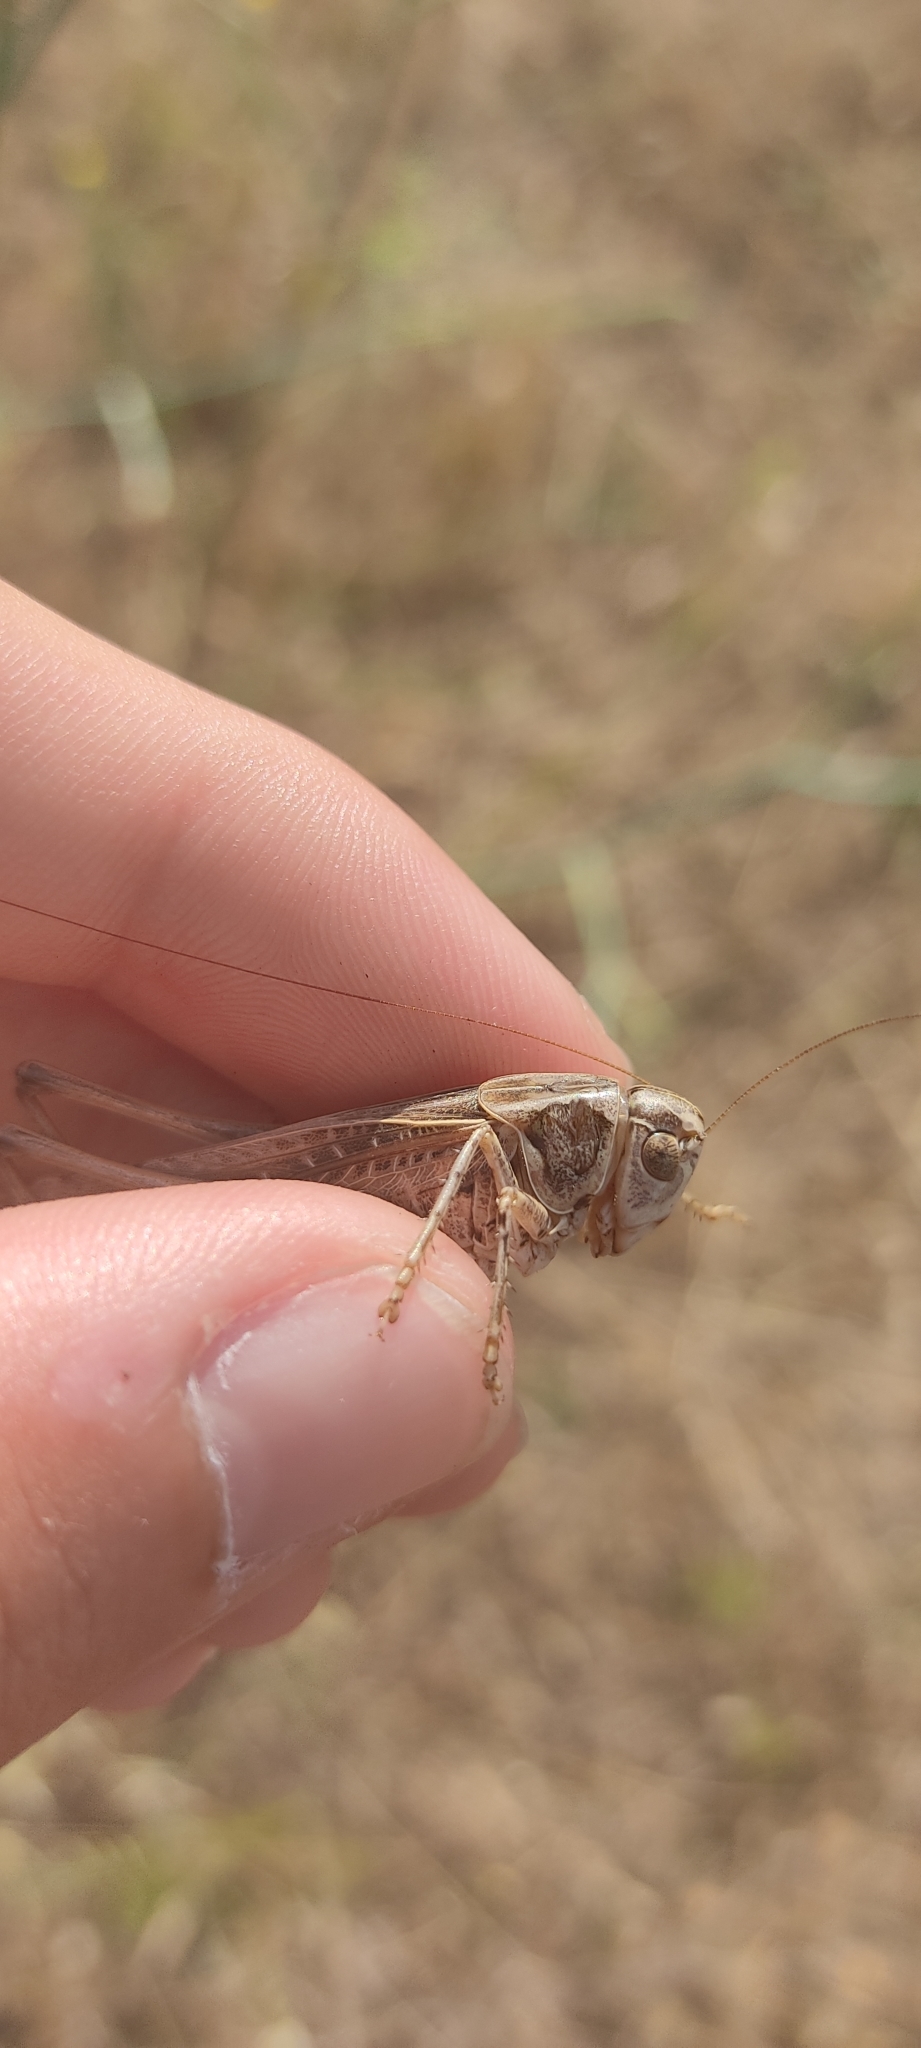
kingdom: Animalia
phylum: Arthropoda
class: Insecta
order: Orthoptera
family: Tettigoniidae
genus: Platycleis
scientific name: Platycleis affinis
